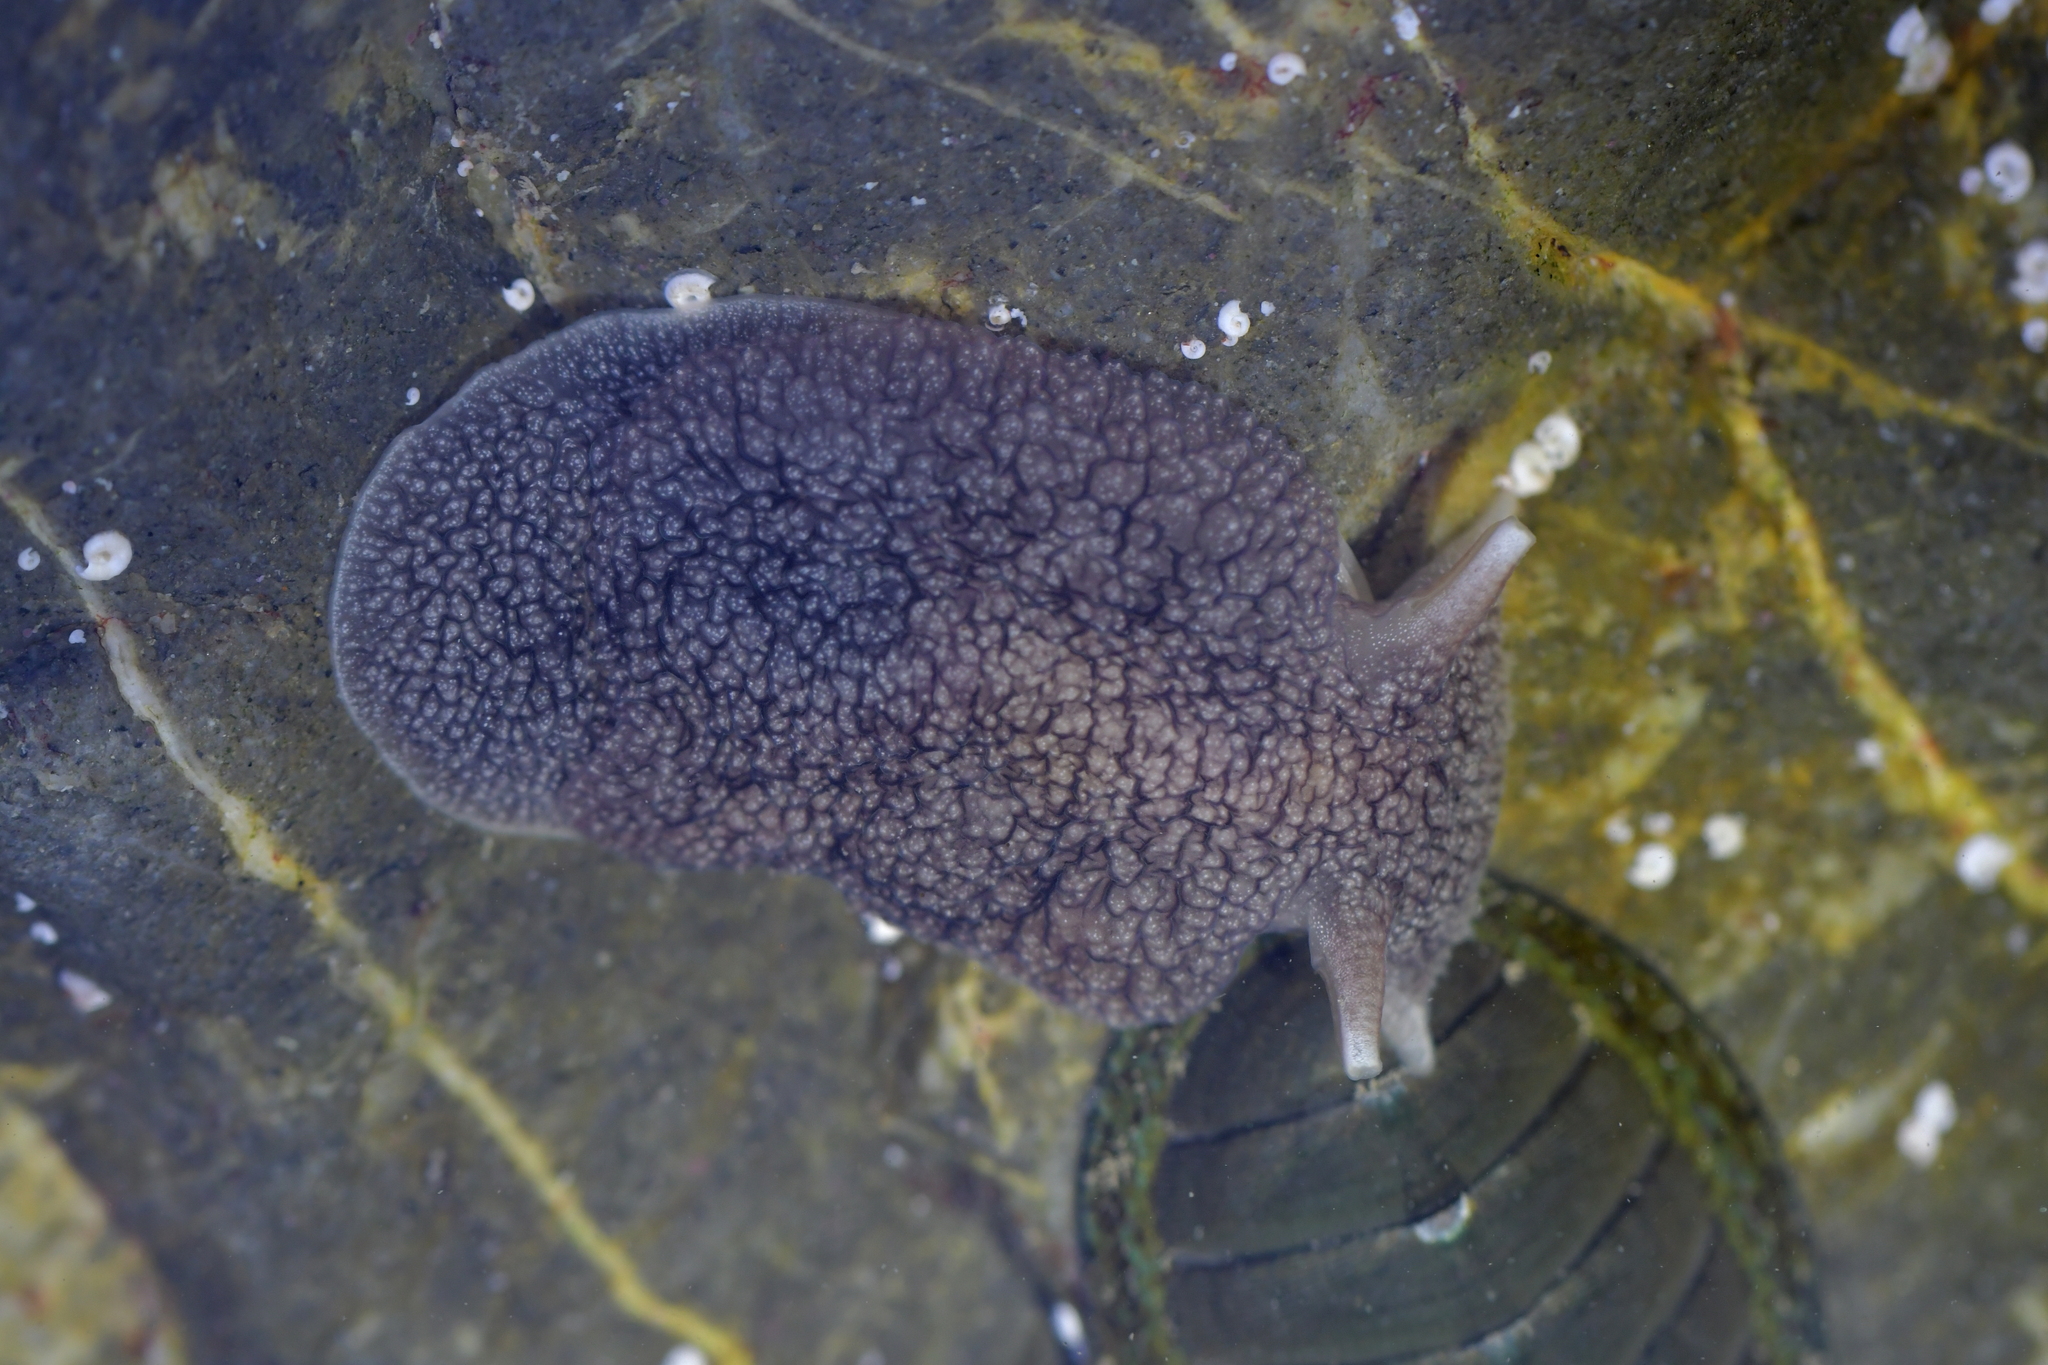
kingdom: Animalia
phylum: Mollusca
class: Gastropoda
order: Pleurobranchida
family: Pleurobranchaeidae
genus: Pleurobranchaea
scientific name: Pleurobranchaea maculata
